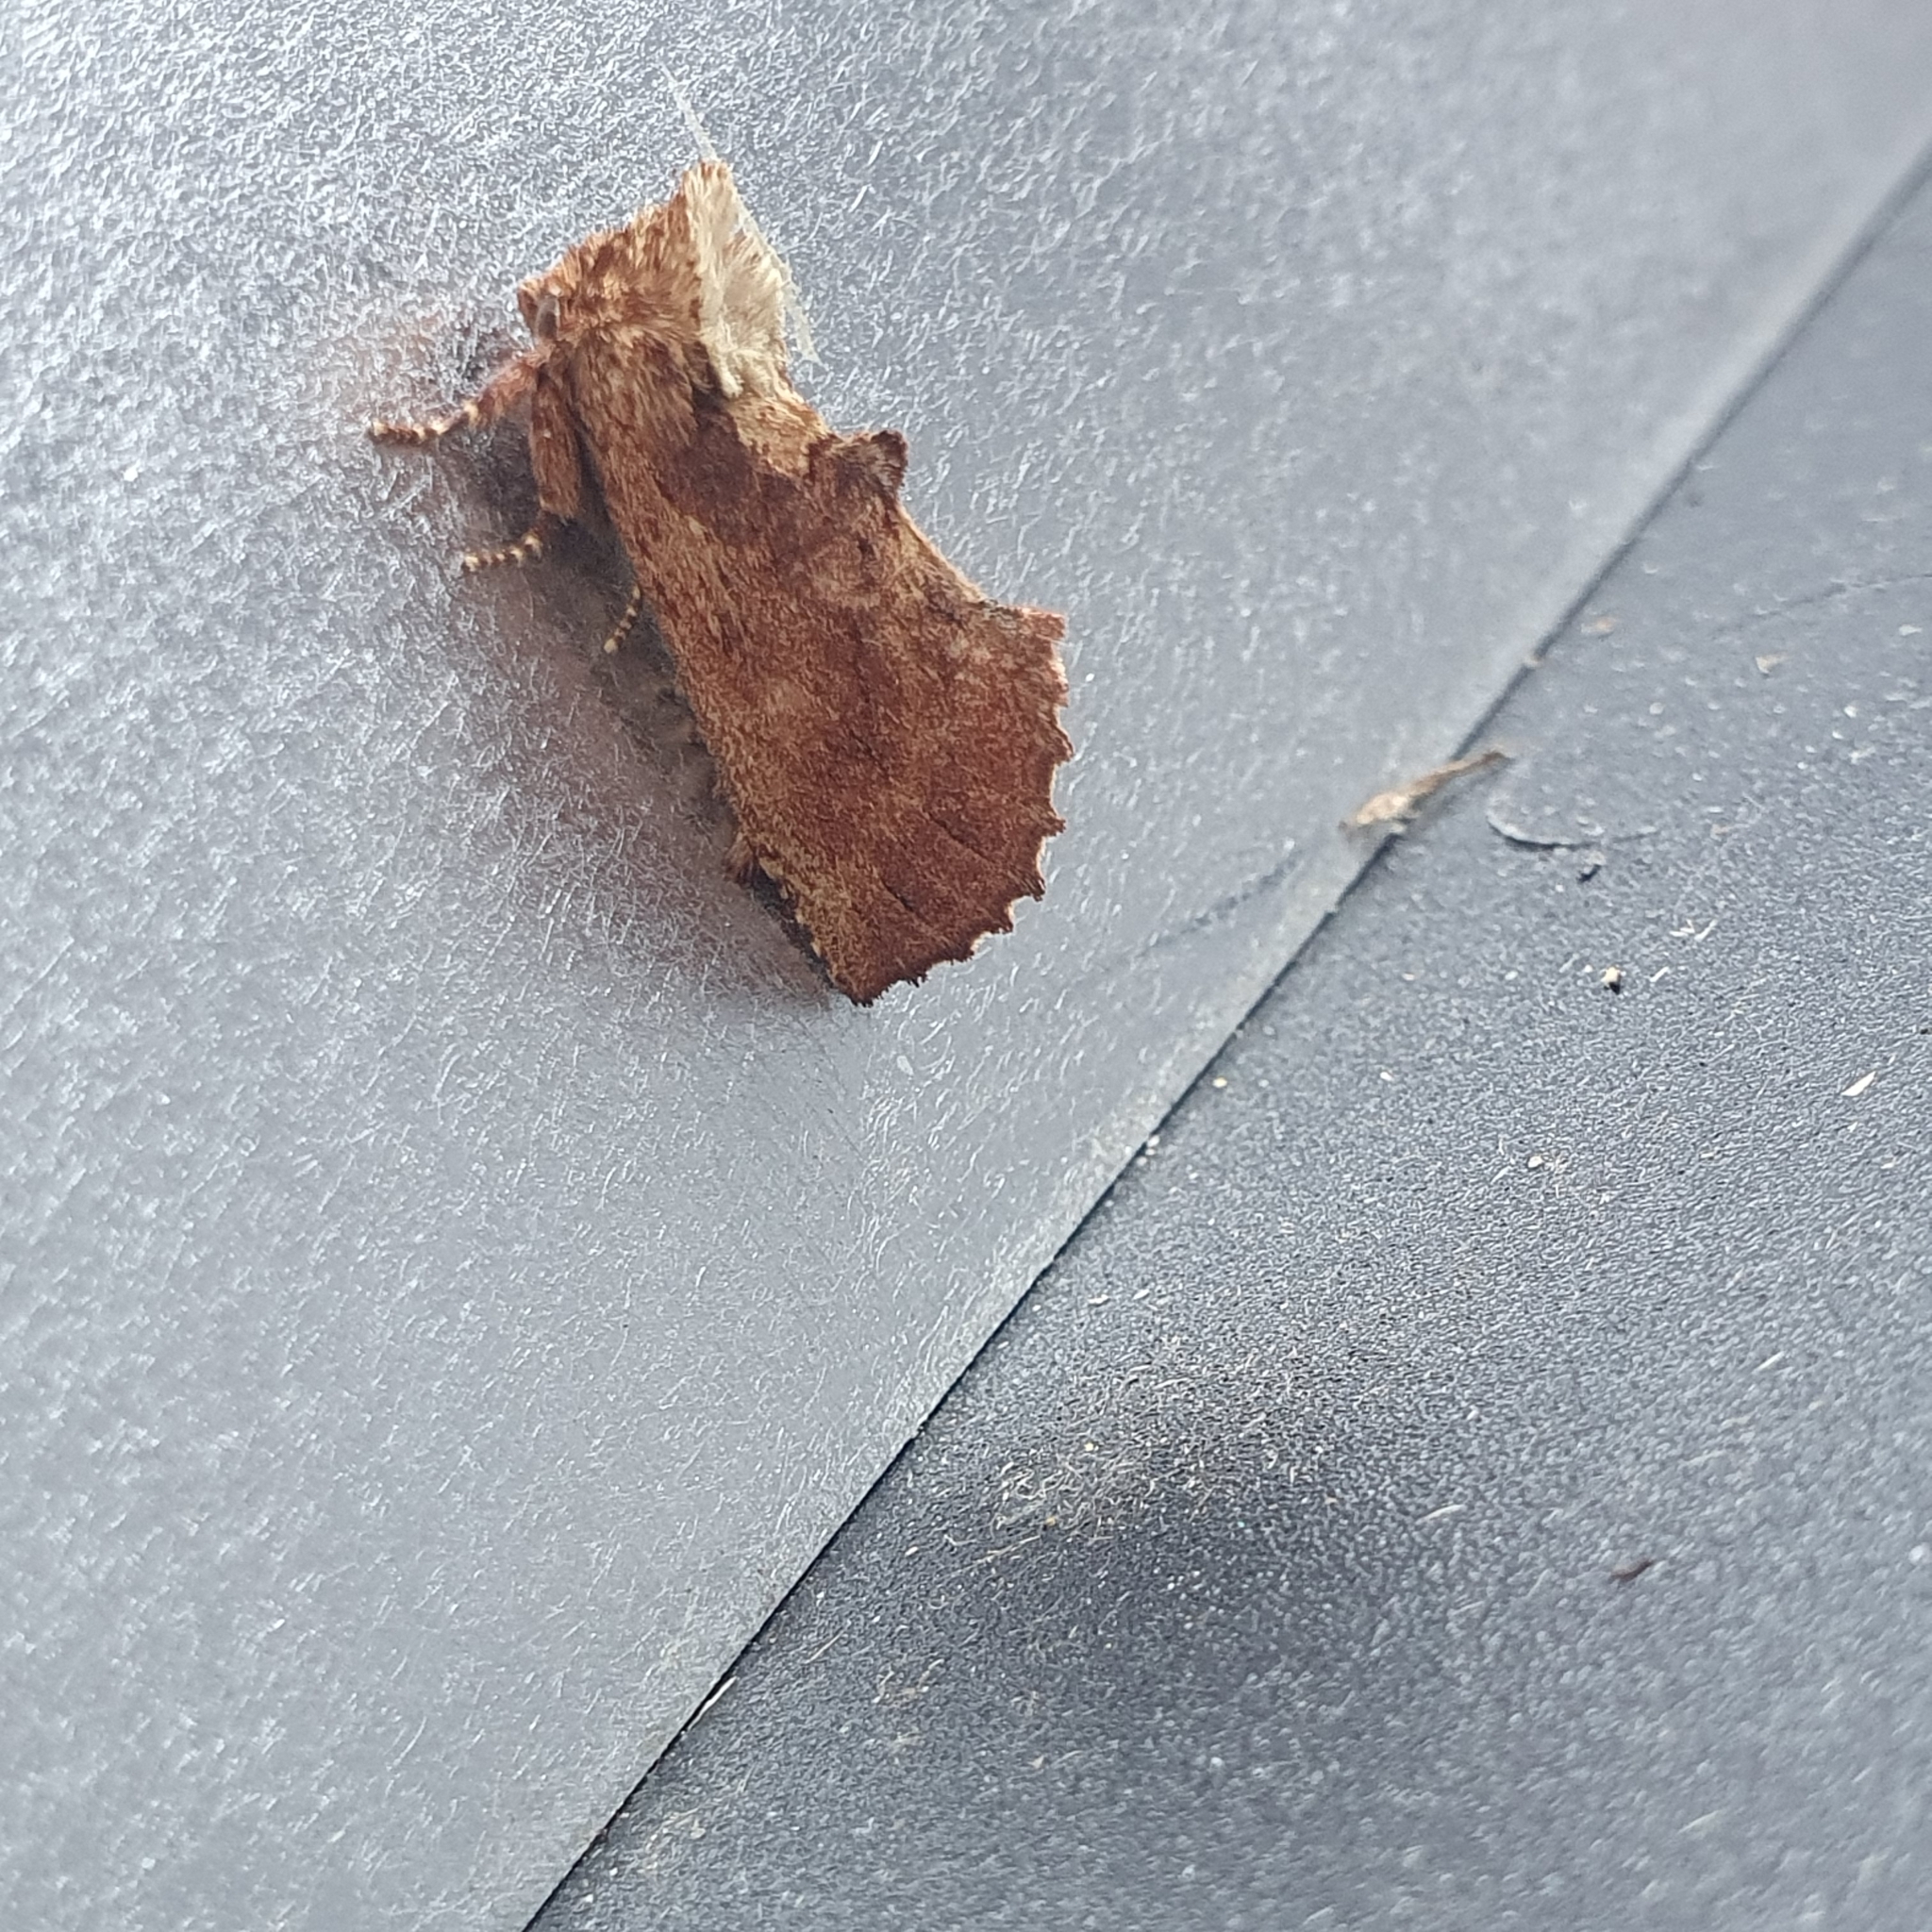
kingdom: Animalia
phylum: Arthropoda
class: Insecta
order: Lepidoptera
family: Notodontidae
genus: Ptilodon
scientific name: Ptilodon capucina
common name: Coxcomb prominent
